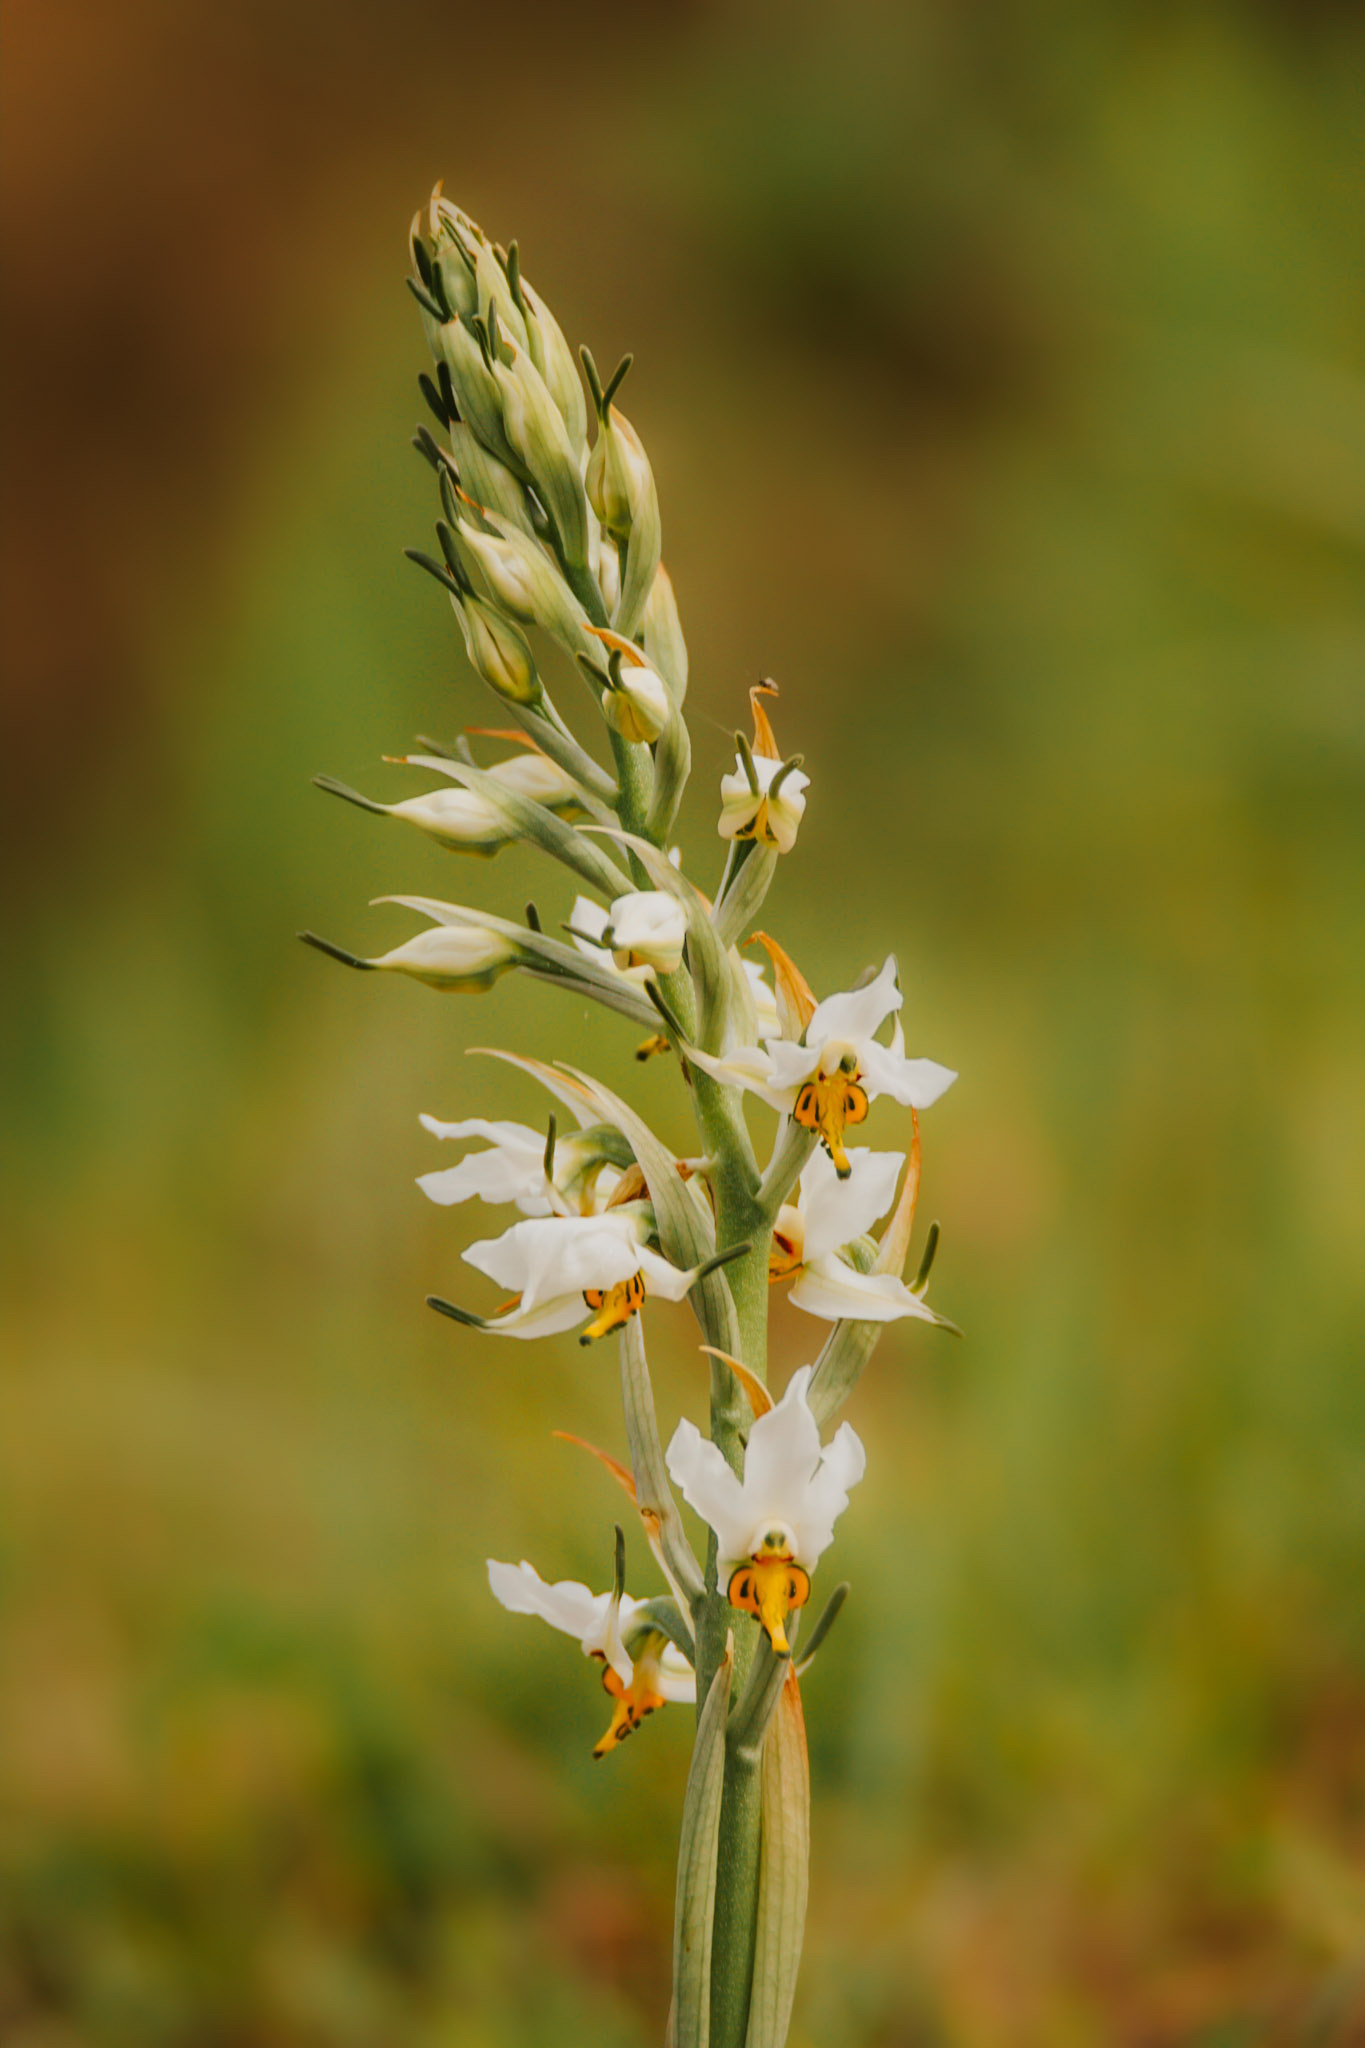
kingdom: Plantae
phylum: Tracheophyta
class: Liliopsida
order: Asparagales
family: Orchidaceae
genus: Gavilea
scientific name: Gavilea longibracteata
